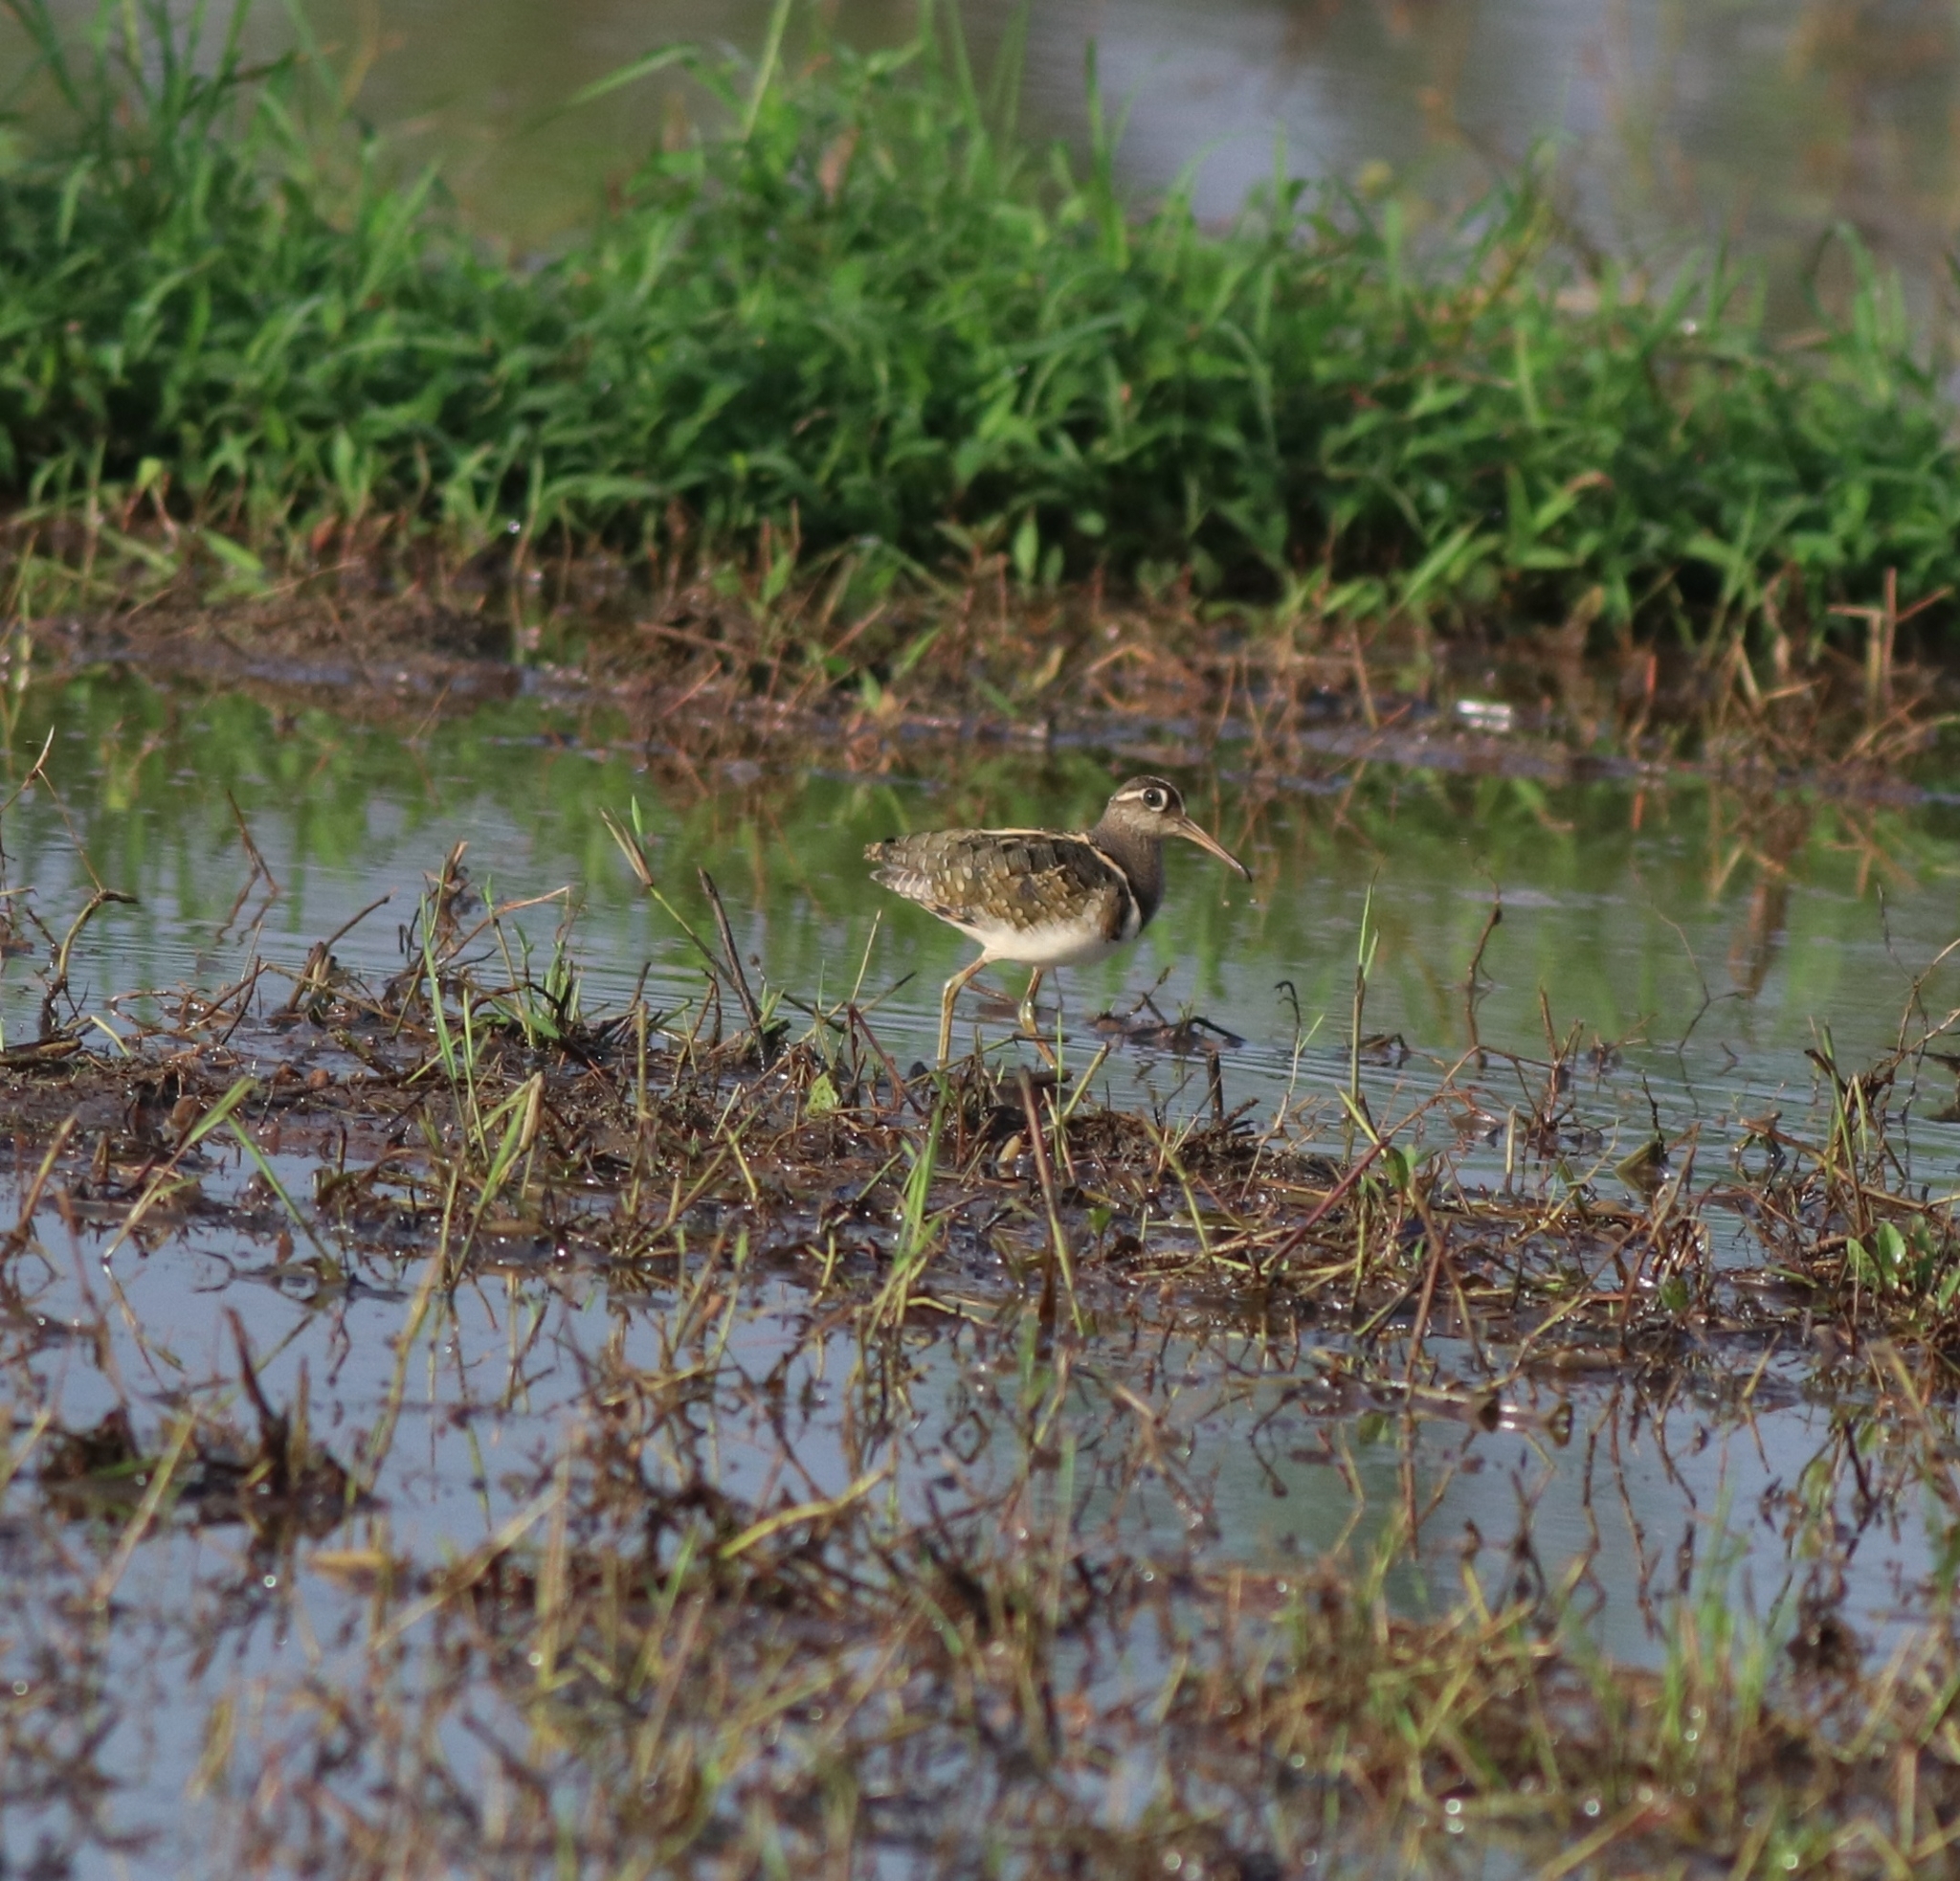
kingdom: Animalia
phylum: Chordata
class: Aves
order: Charadriiformes
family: Rostratulidae
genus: Rostratula
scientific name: Rostratula benghalensis
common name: Greater painted-snipe
